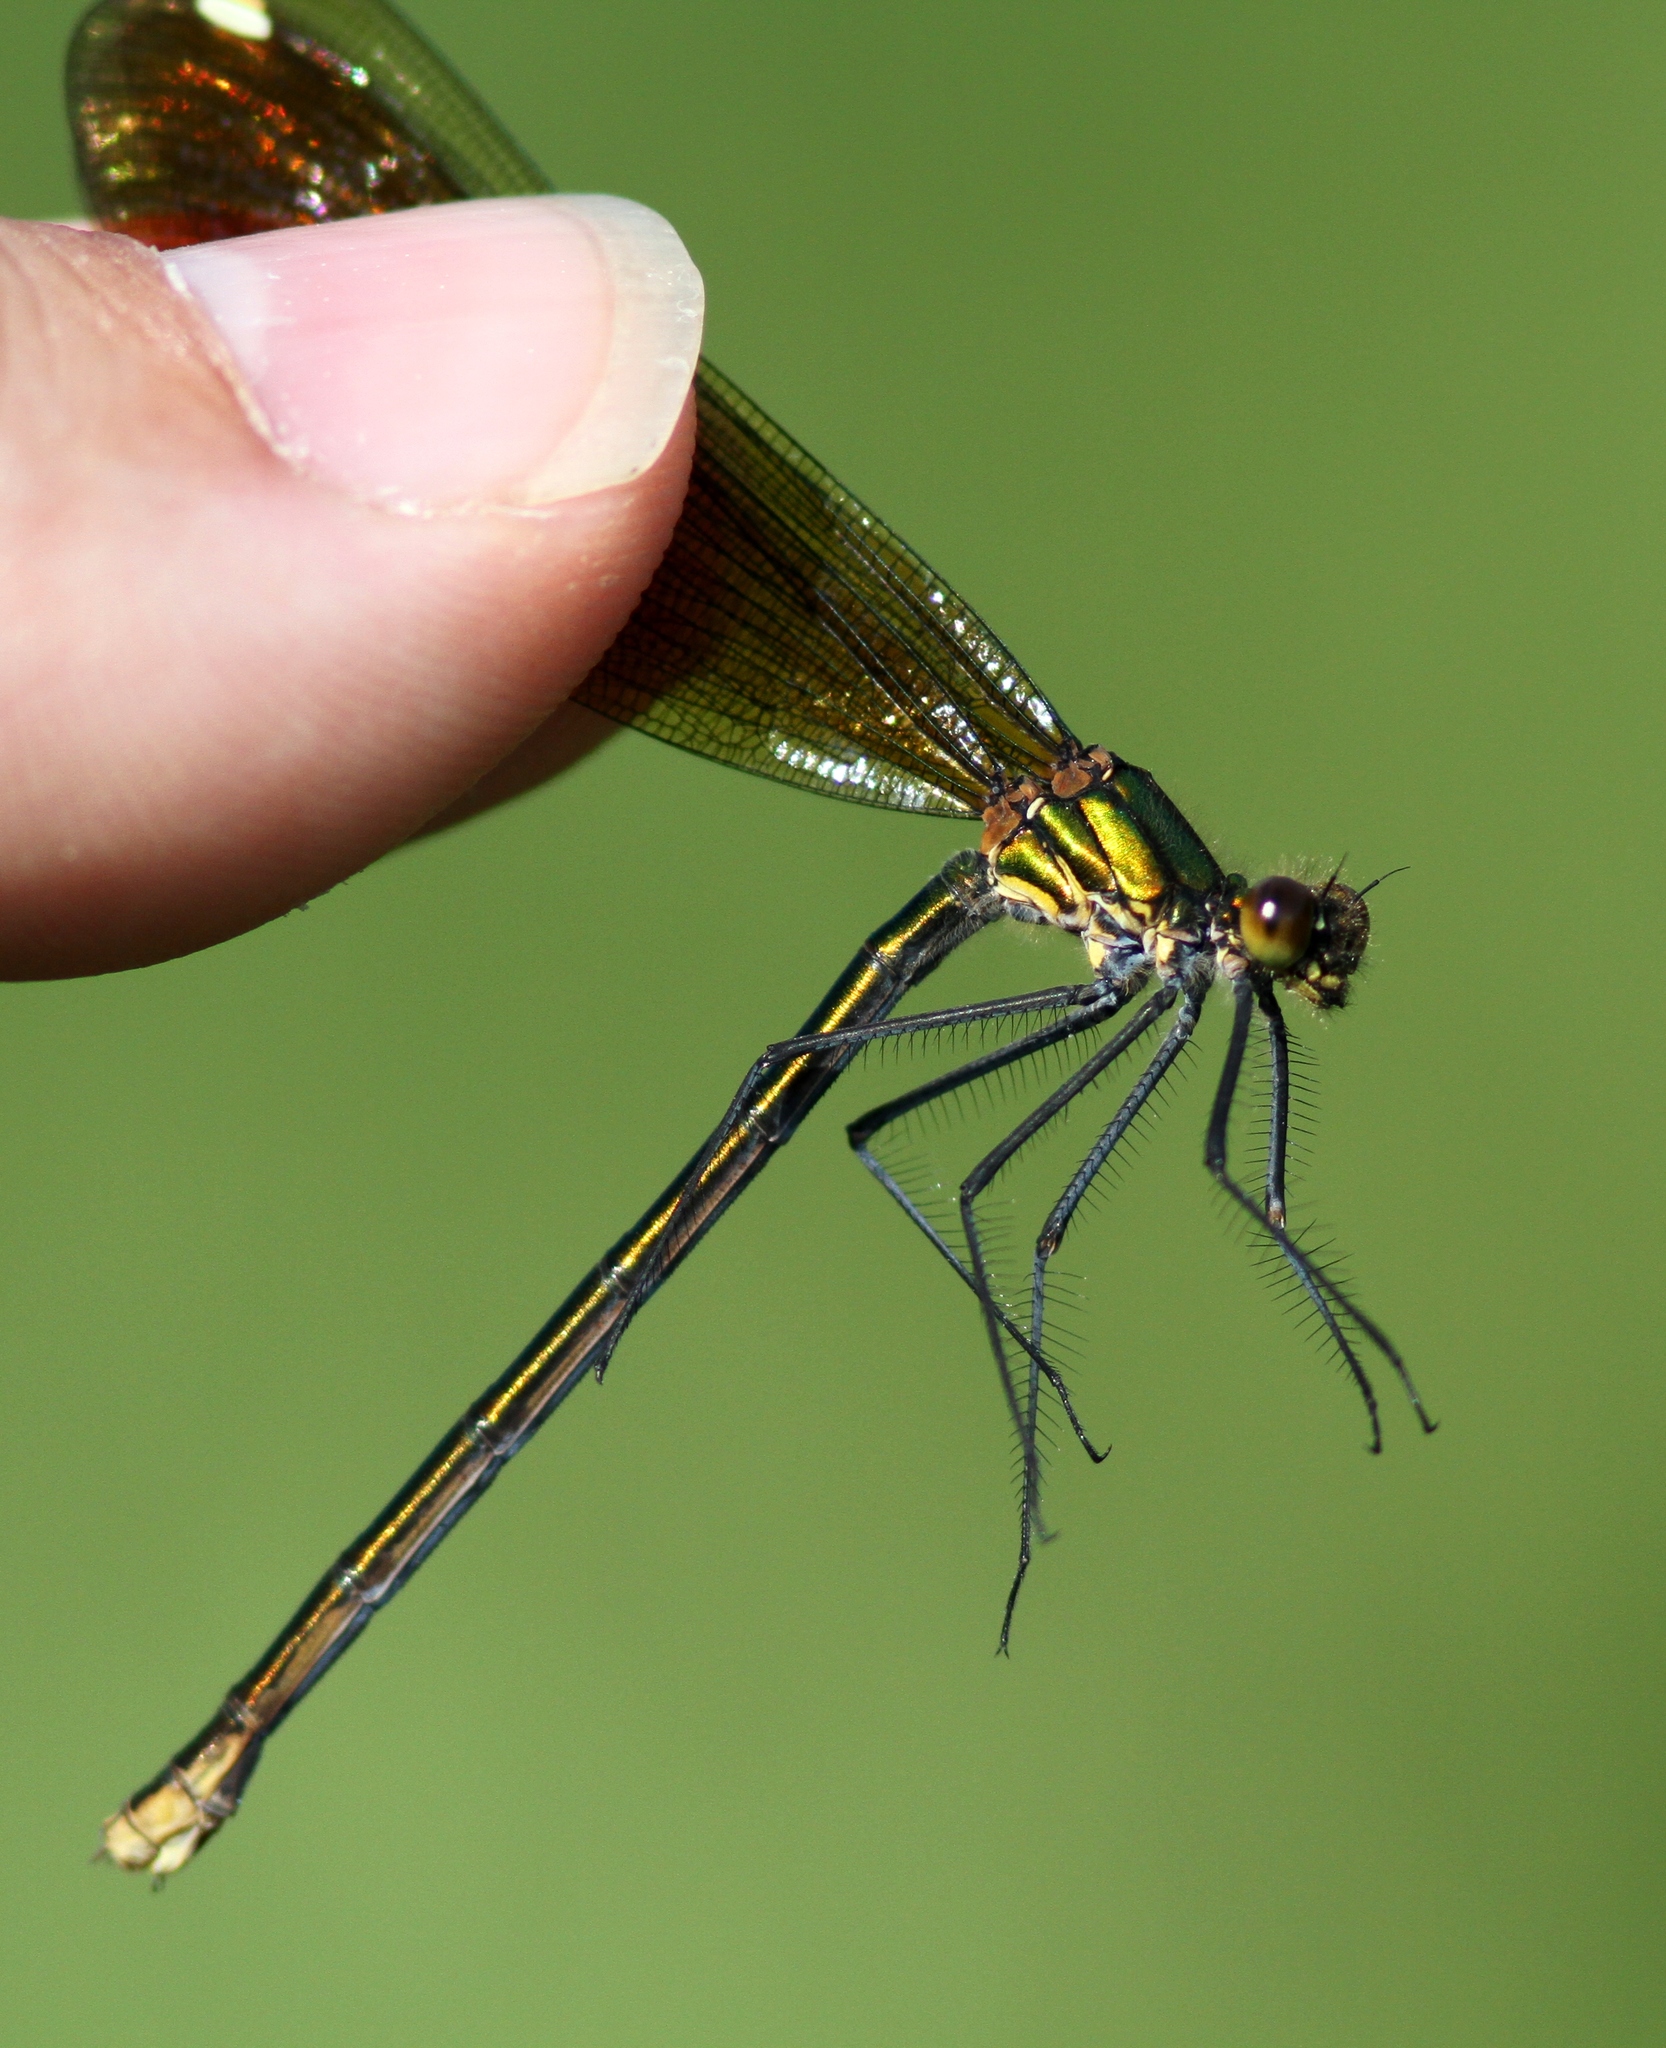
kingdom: Animalia
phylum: Arthropoda
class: Insecta
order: Odonata
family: Calopterygidae
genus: Calopteryx
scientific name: Calopteryx aequabilis
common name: River jewelwing
